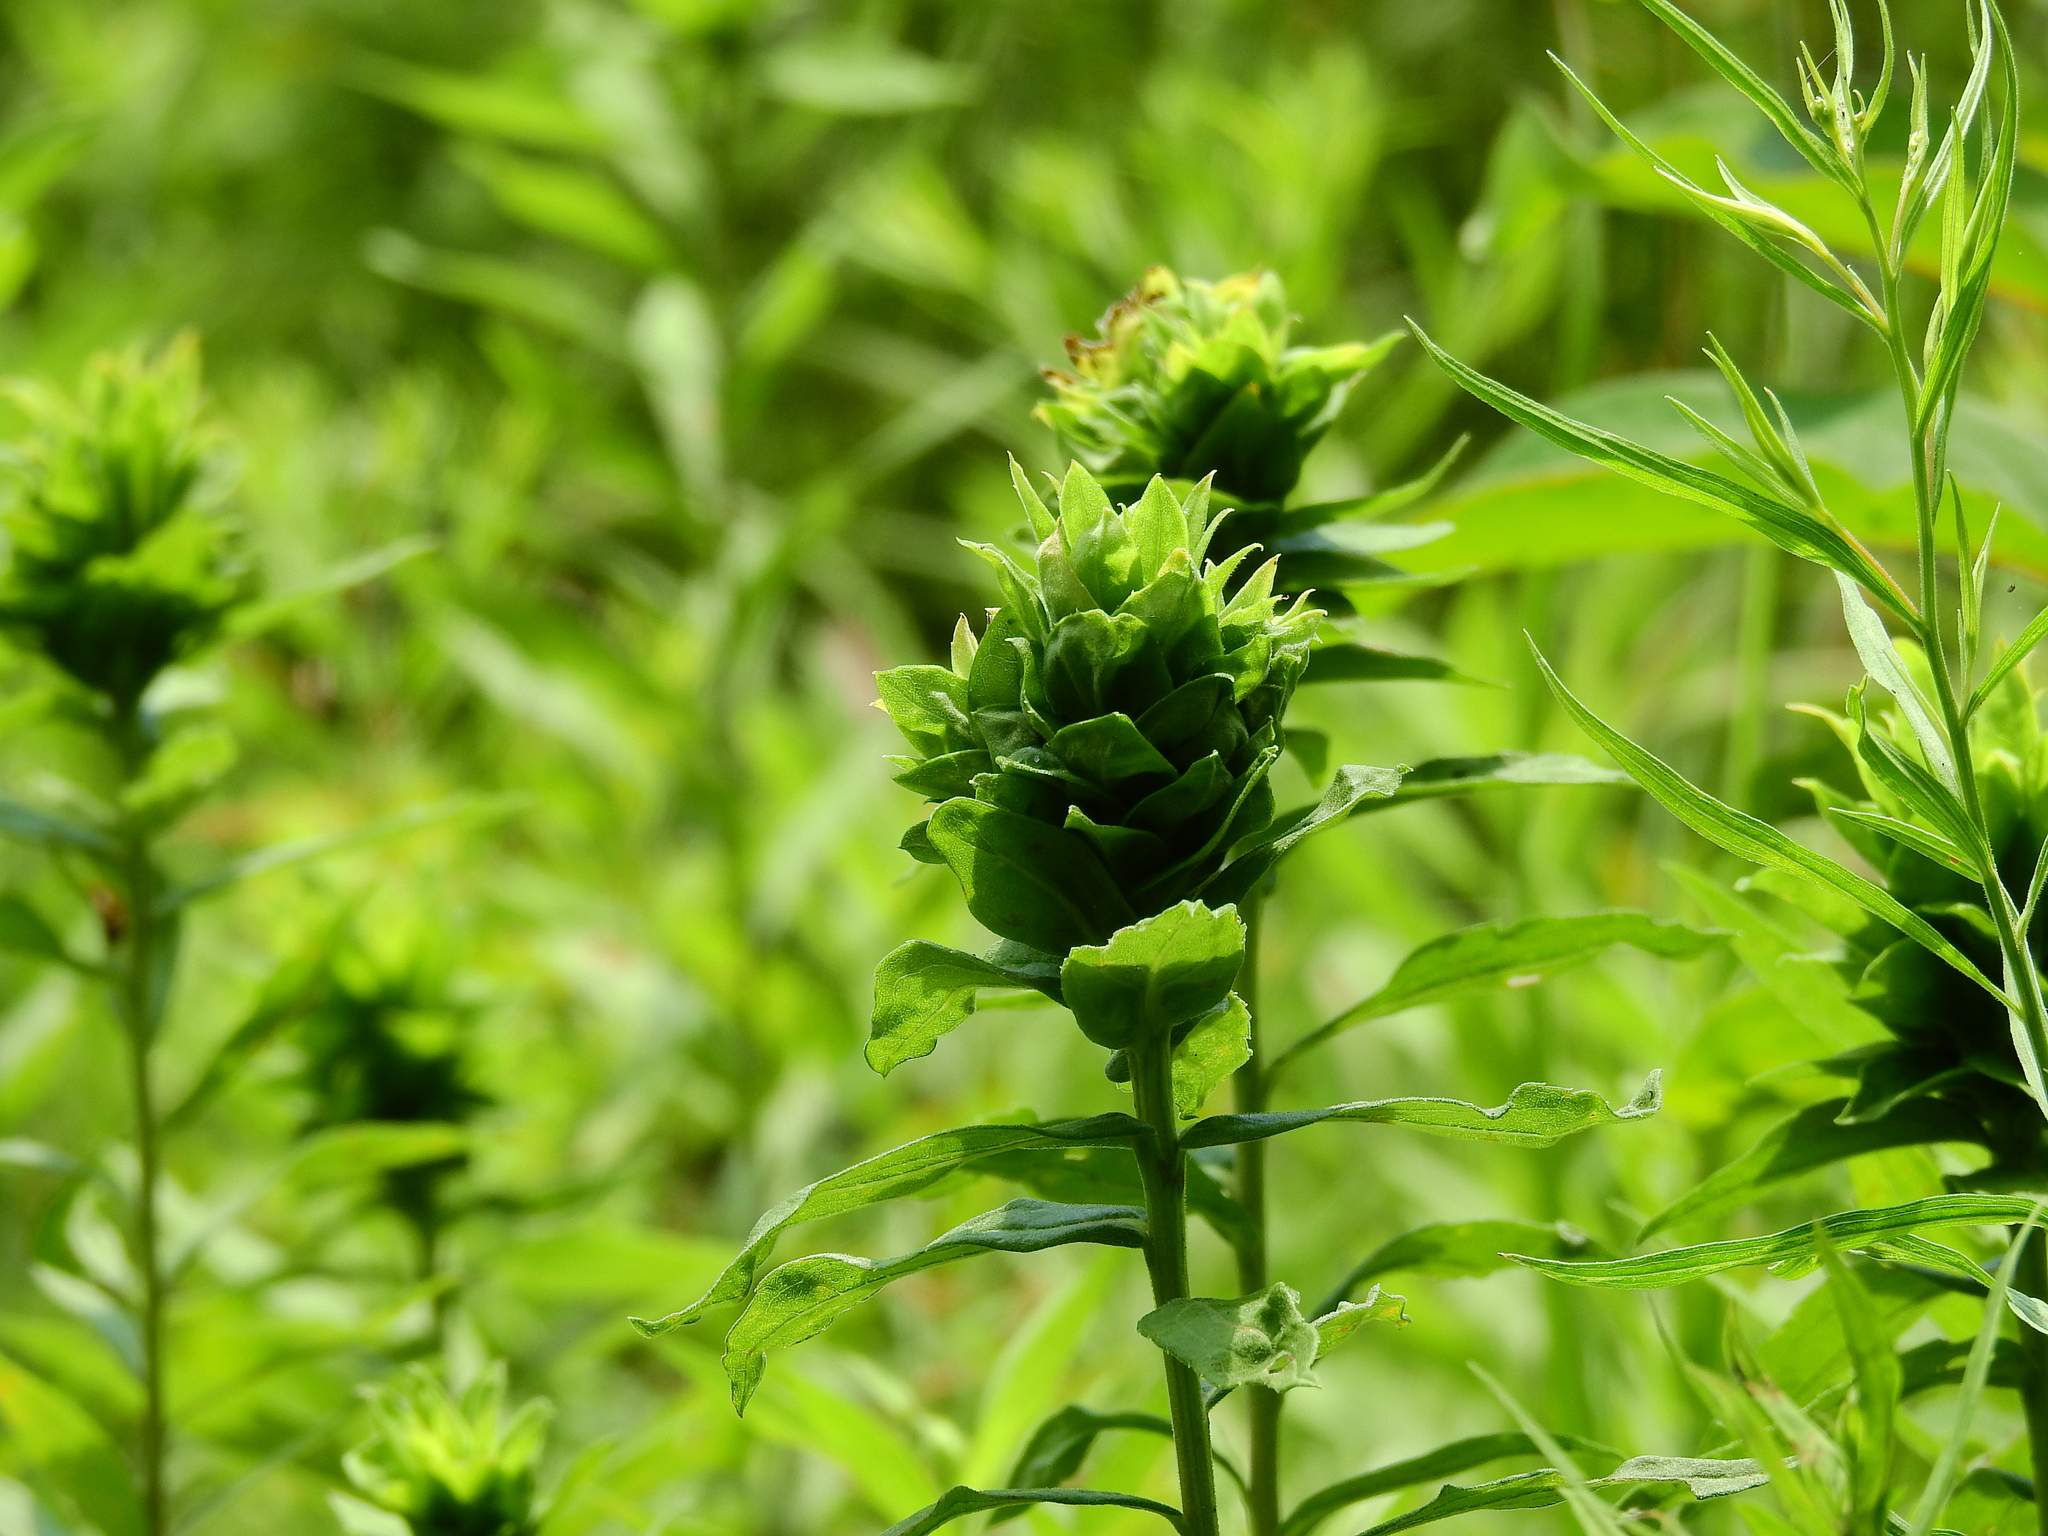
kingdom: Animalia
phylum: Arthropoda
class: Insecta
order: Diptera
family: Cecidomyiidae
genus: Rhopalomyia
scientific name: Rhopalomyia solidaginis
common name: Goldenrod bunch gall midge
